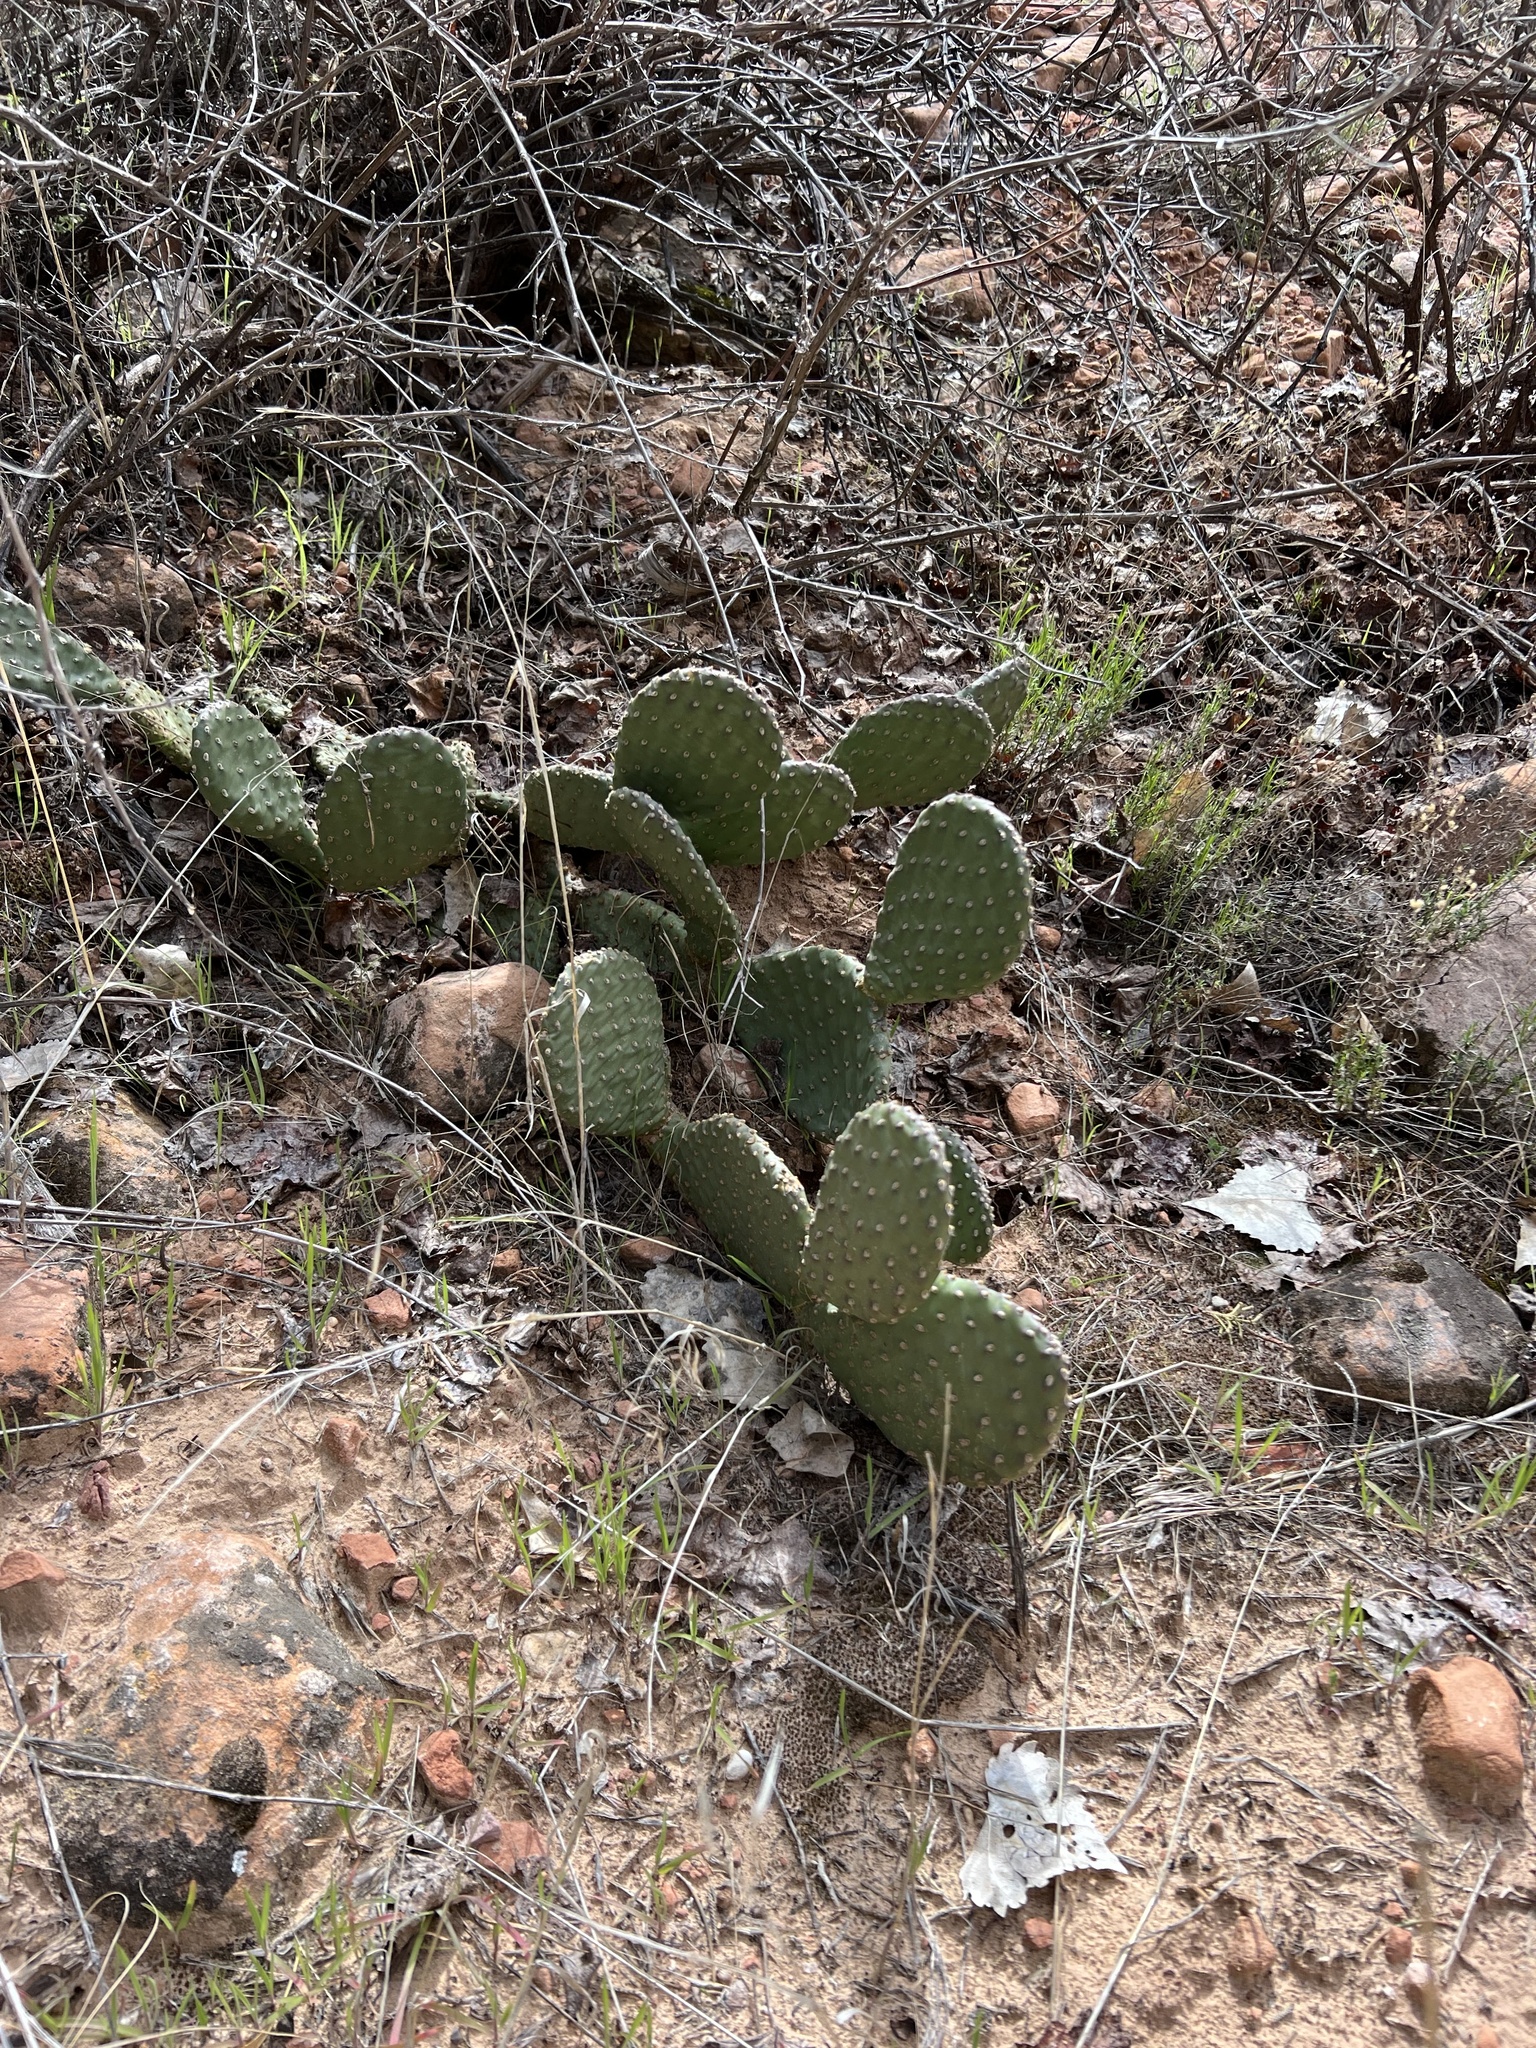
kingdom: Plantae
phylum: Tracheophyta
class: Magnoliopsida
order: Caryophyllales
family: Cactaceae
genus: Opuntia
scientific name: Opuntia aurea
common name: Golden prickly-pear
